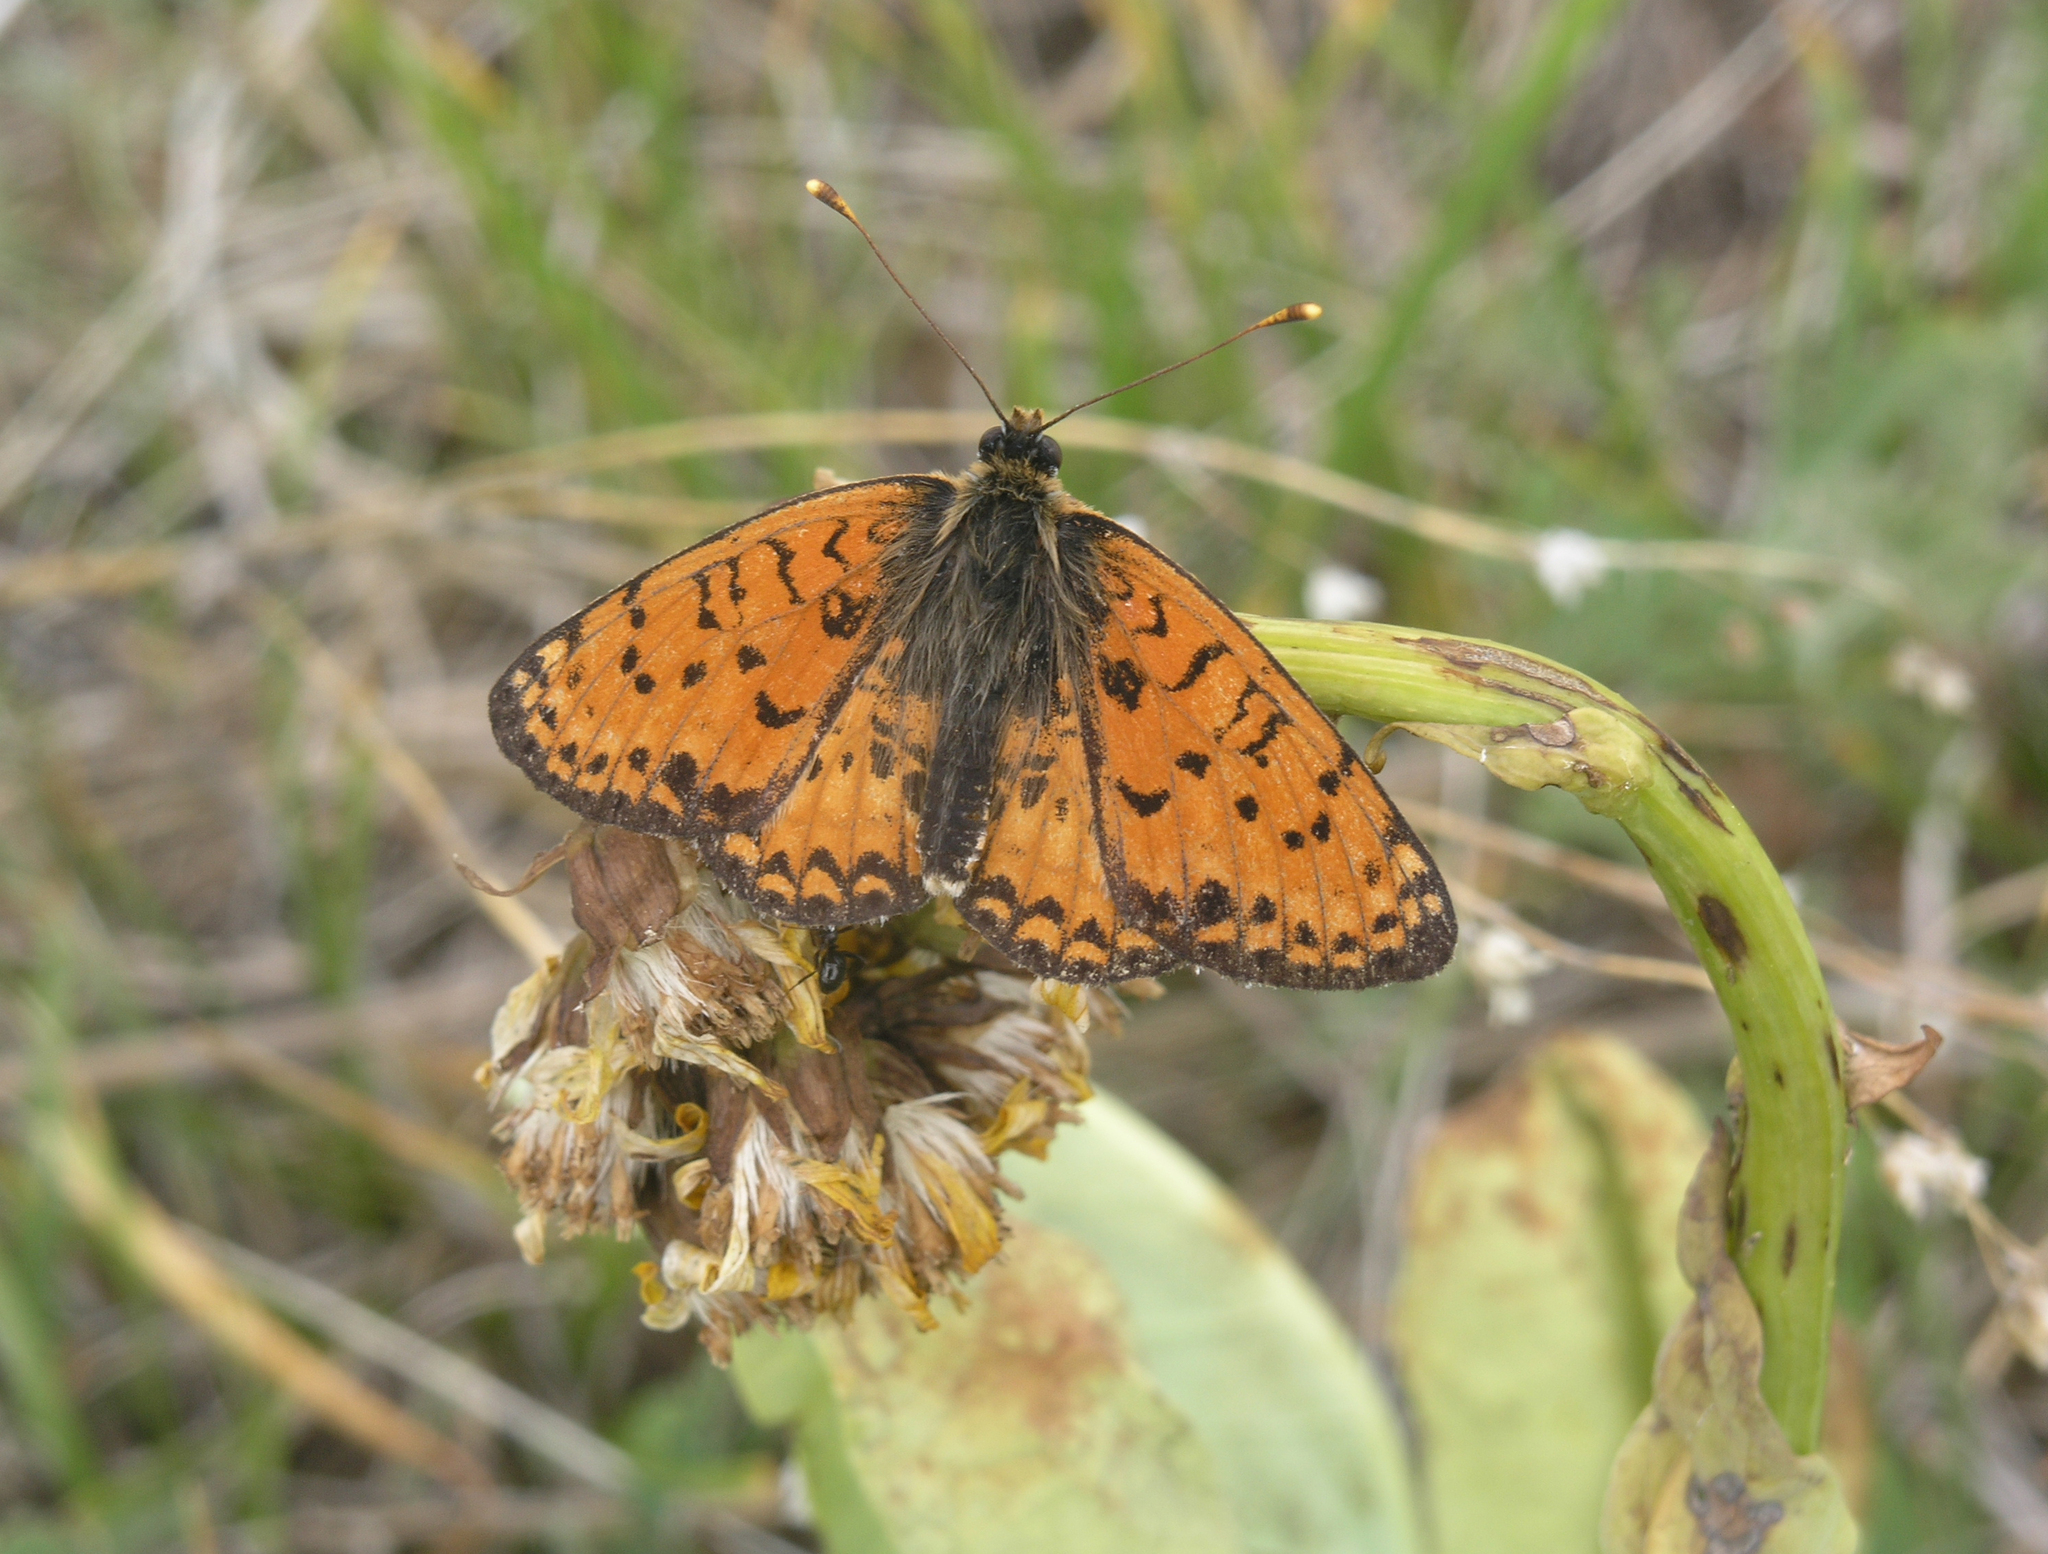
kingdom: Animalia
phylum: Arthropoda
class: Insecta
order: Lepidoptera
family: Nymphalidae
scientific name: Nymphalidae
